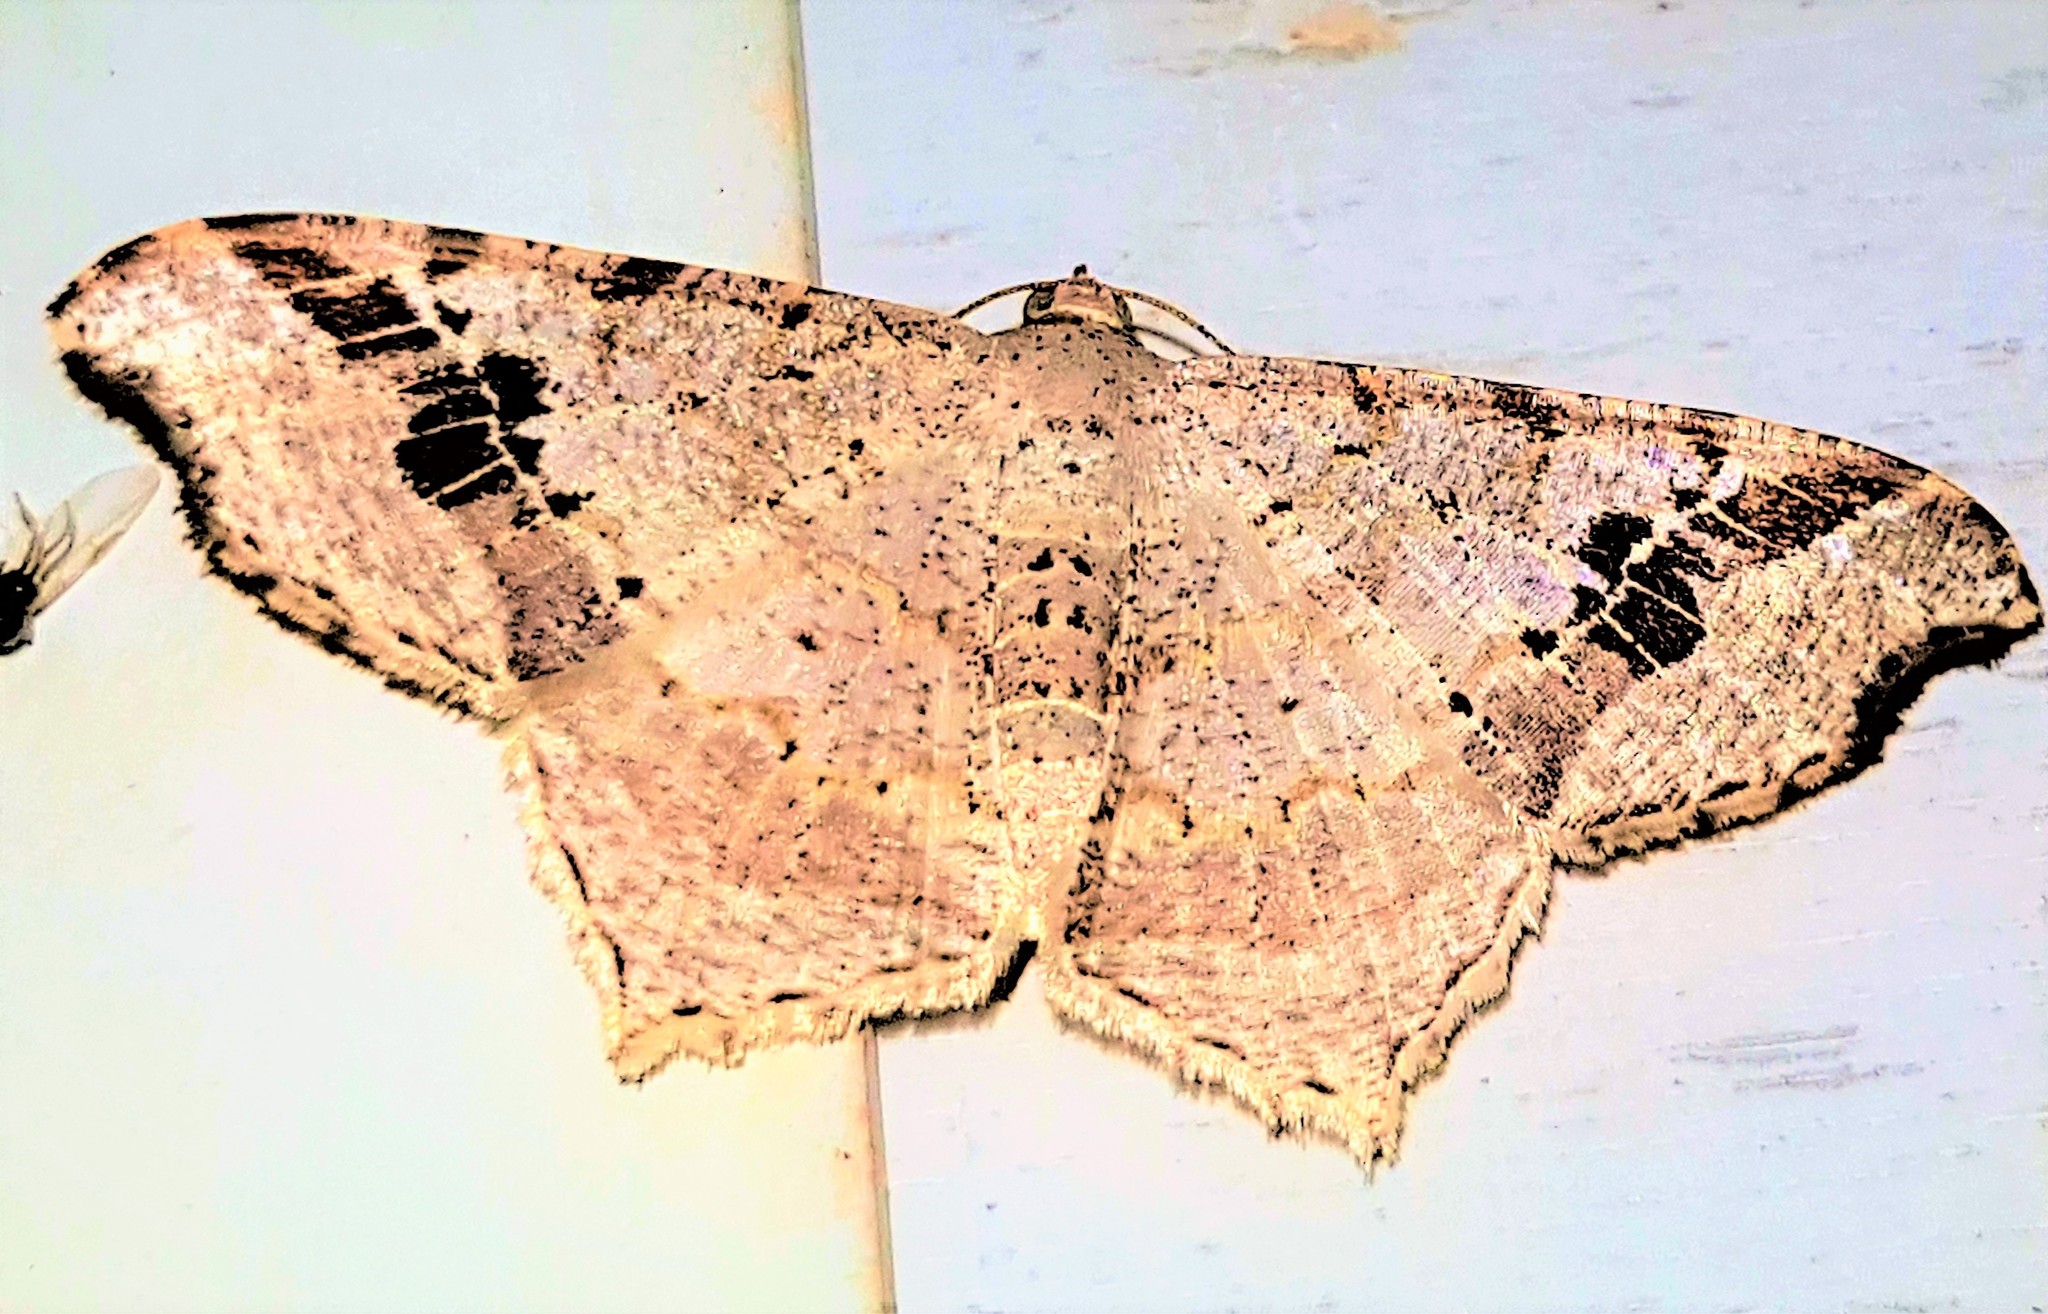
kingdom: Animalia
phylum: Arthropoda
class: Insecta
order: Lepidoptera
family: Geometridae
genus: Macaria
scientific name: Macaria aemulataria
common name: Common angle
